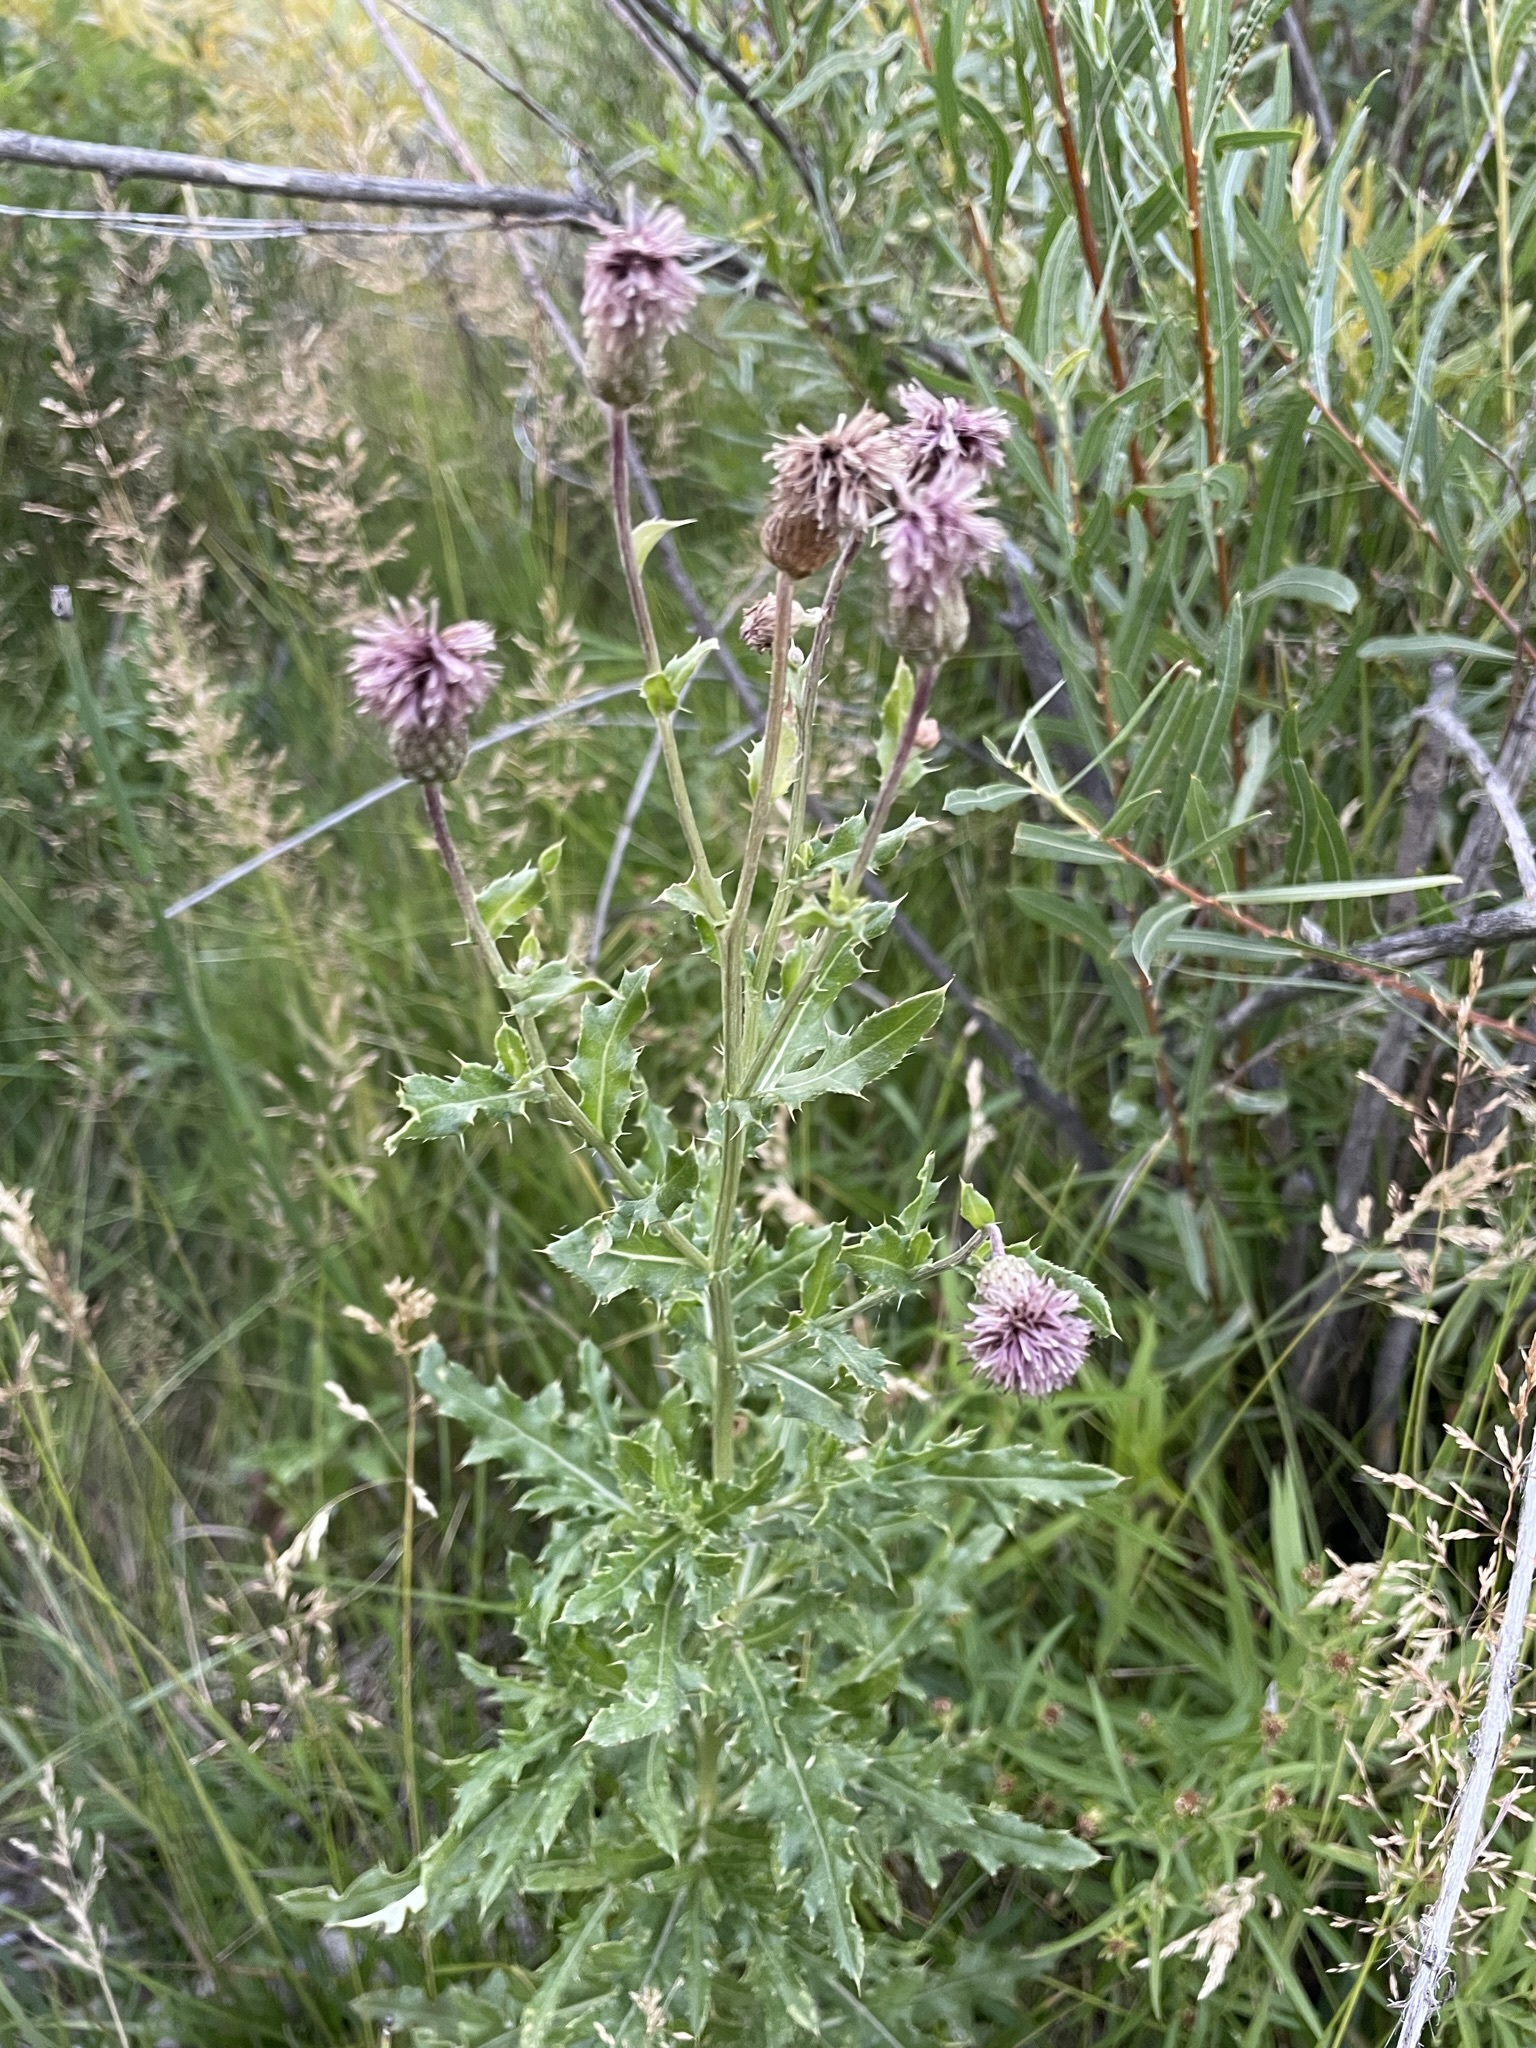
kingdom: Plantae
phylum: Tracheophyta
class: Magnoliopsida
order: Asterales
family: Asteraceae
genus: Cirsium
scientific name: Cirsium arvense
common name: Creeping thistle
